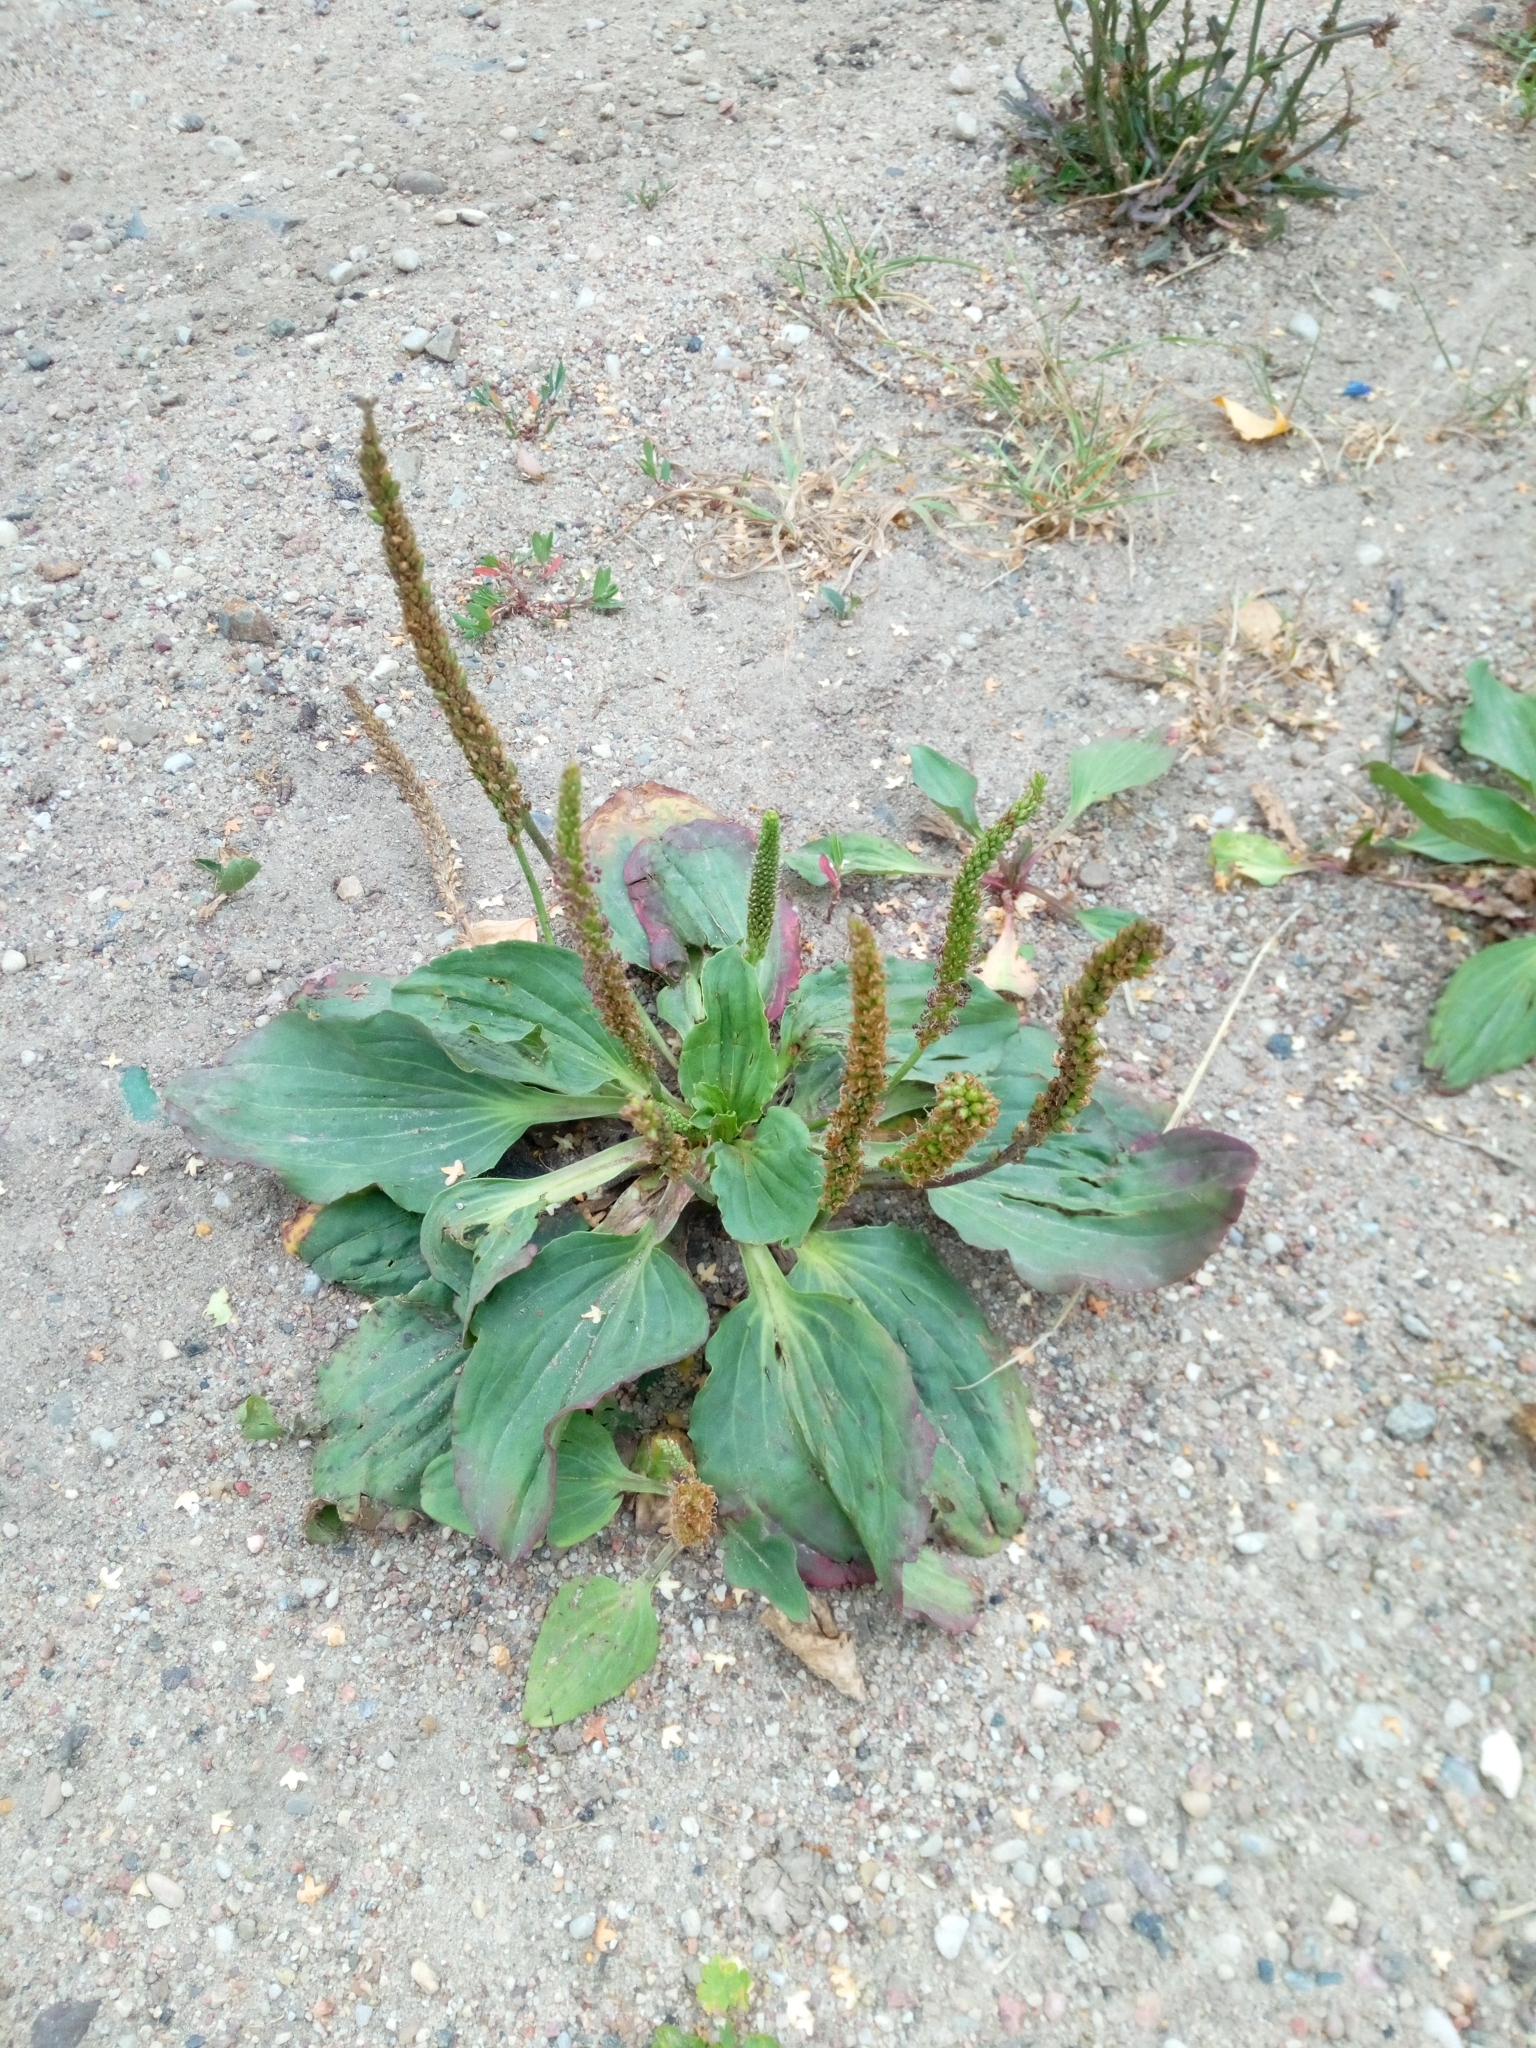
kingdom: Plantae
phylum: Tracheophyta
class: Magnoliopsida
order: Lamiales
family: Plantaginaceae
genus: Plantago
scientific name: Plantago major
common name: Common plantain
